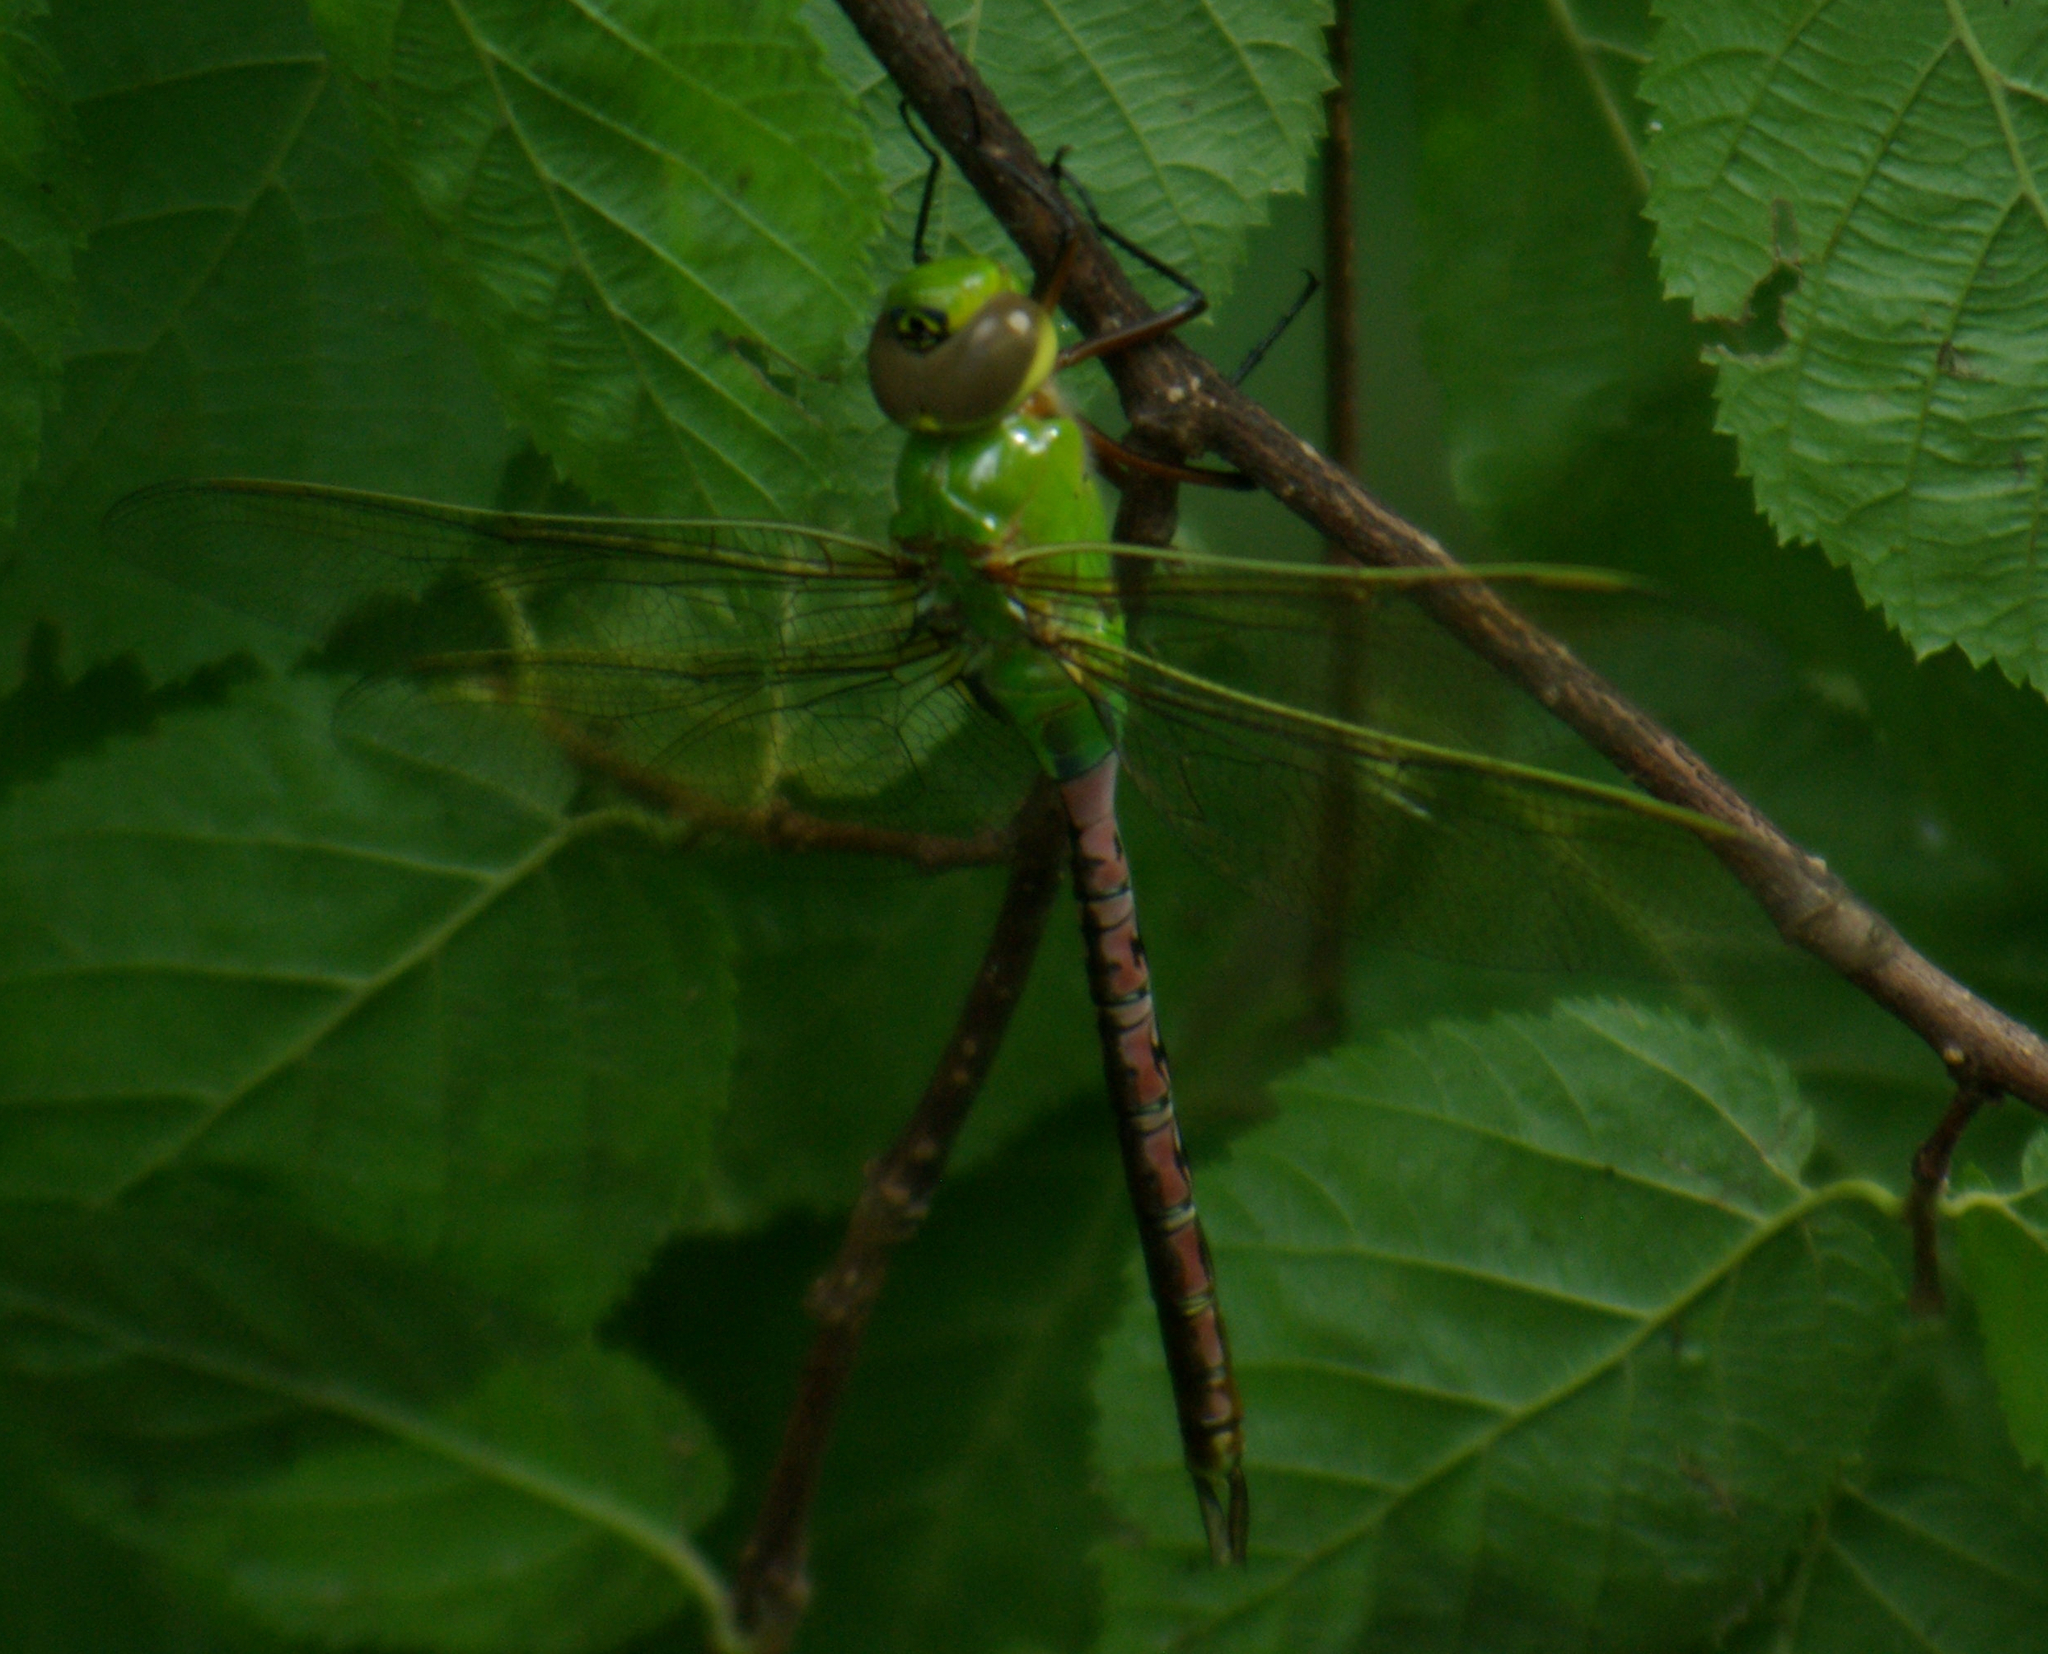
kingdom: Animalia
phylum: Arthropoda
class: Insecta
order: Odonata
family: Aeshnidae
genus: Anax
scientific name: Anax junius
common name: Common green darner
